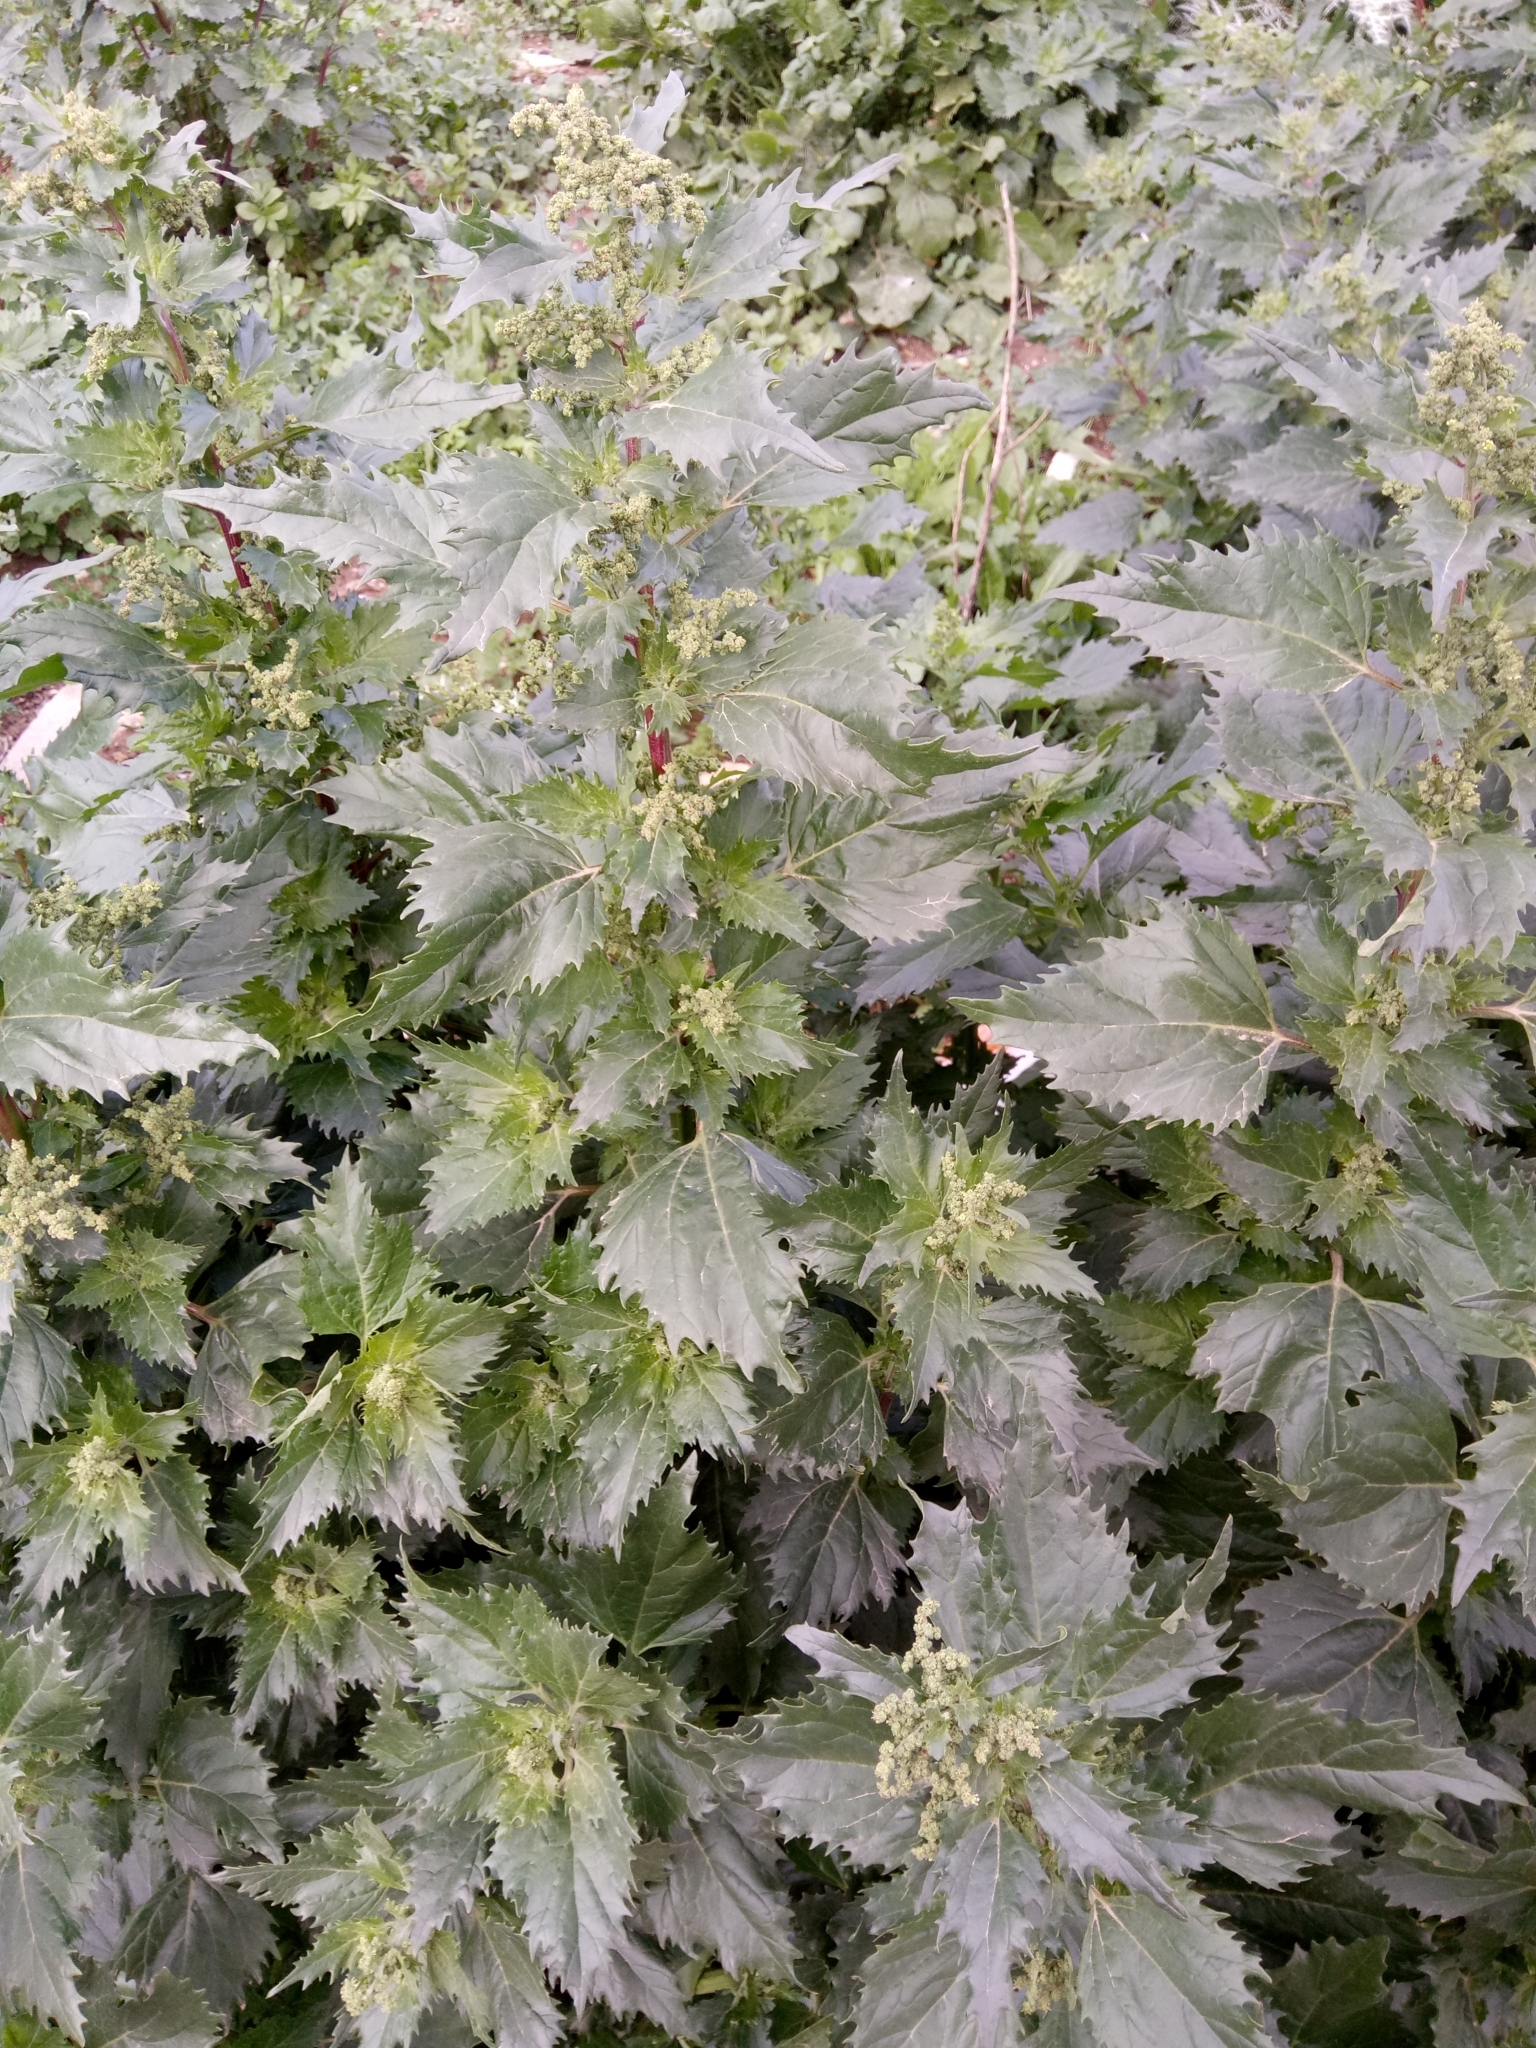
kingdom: Plantae
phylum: Tracheophyta
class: Magnoliopsida
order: Caryophyllales
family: Amaranthaceae
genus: Chenopodiastrum
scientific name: Chenopodiastrum murale
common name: Sowbane
